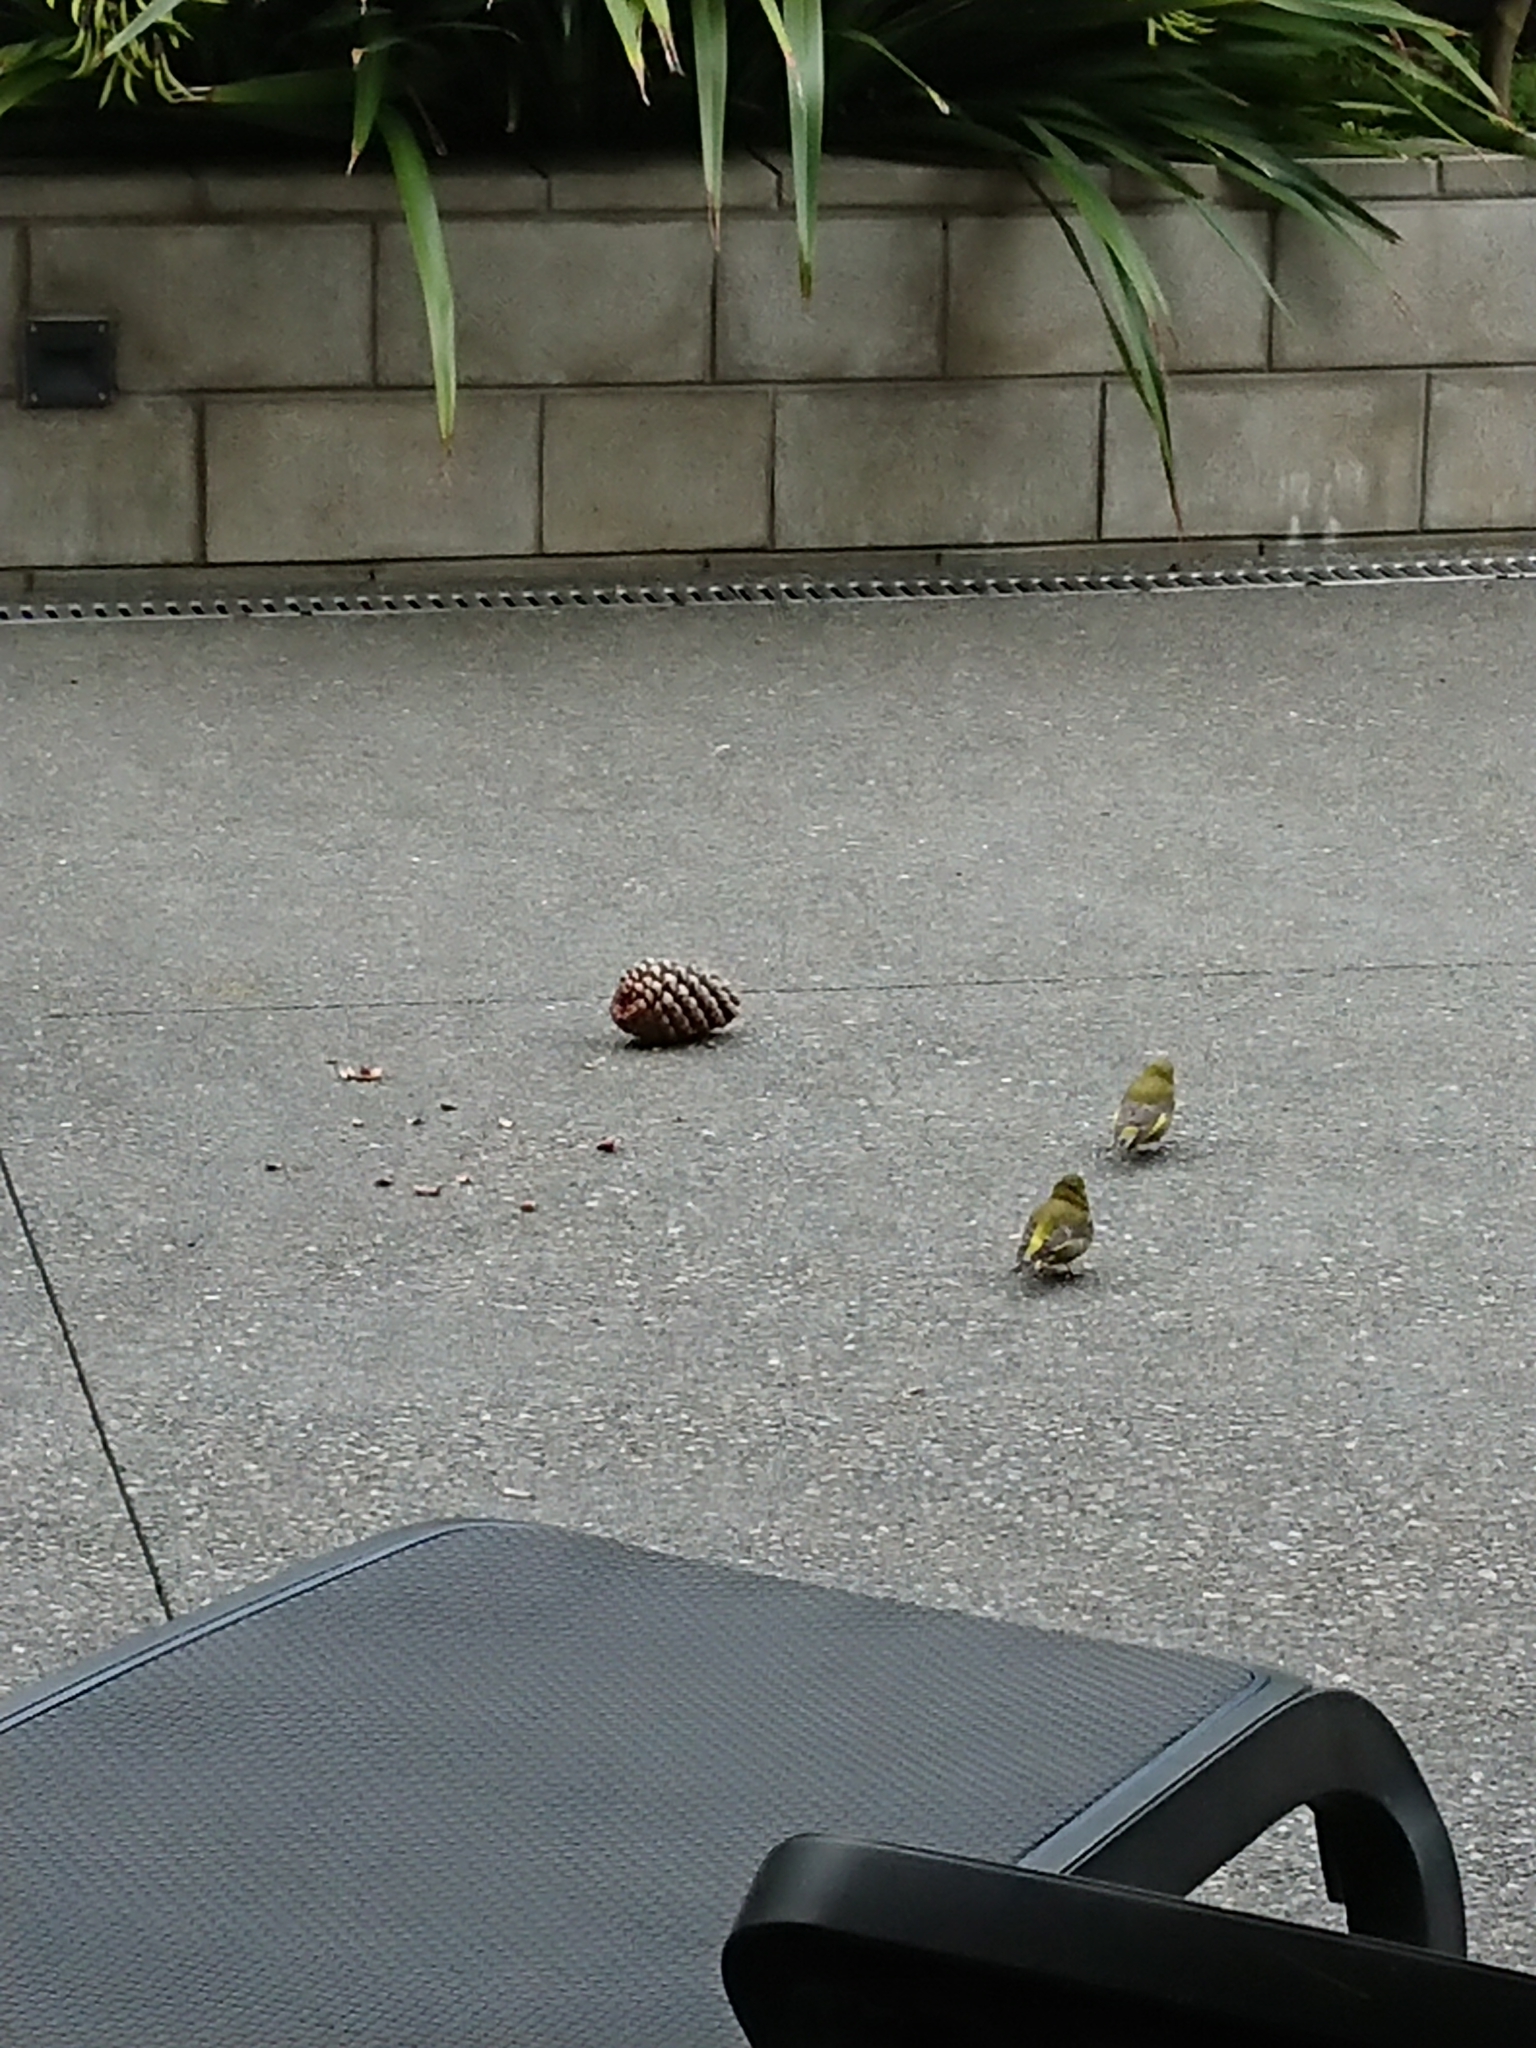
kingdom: Plantae
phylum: Tracheophyta
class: Liliopsida
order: Poales
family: Poaceae
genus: Chloris
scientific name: Chloris chloris
